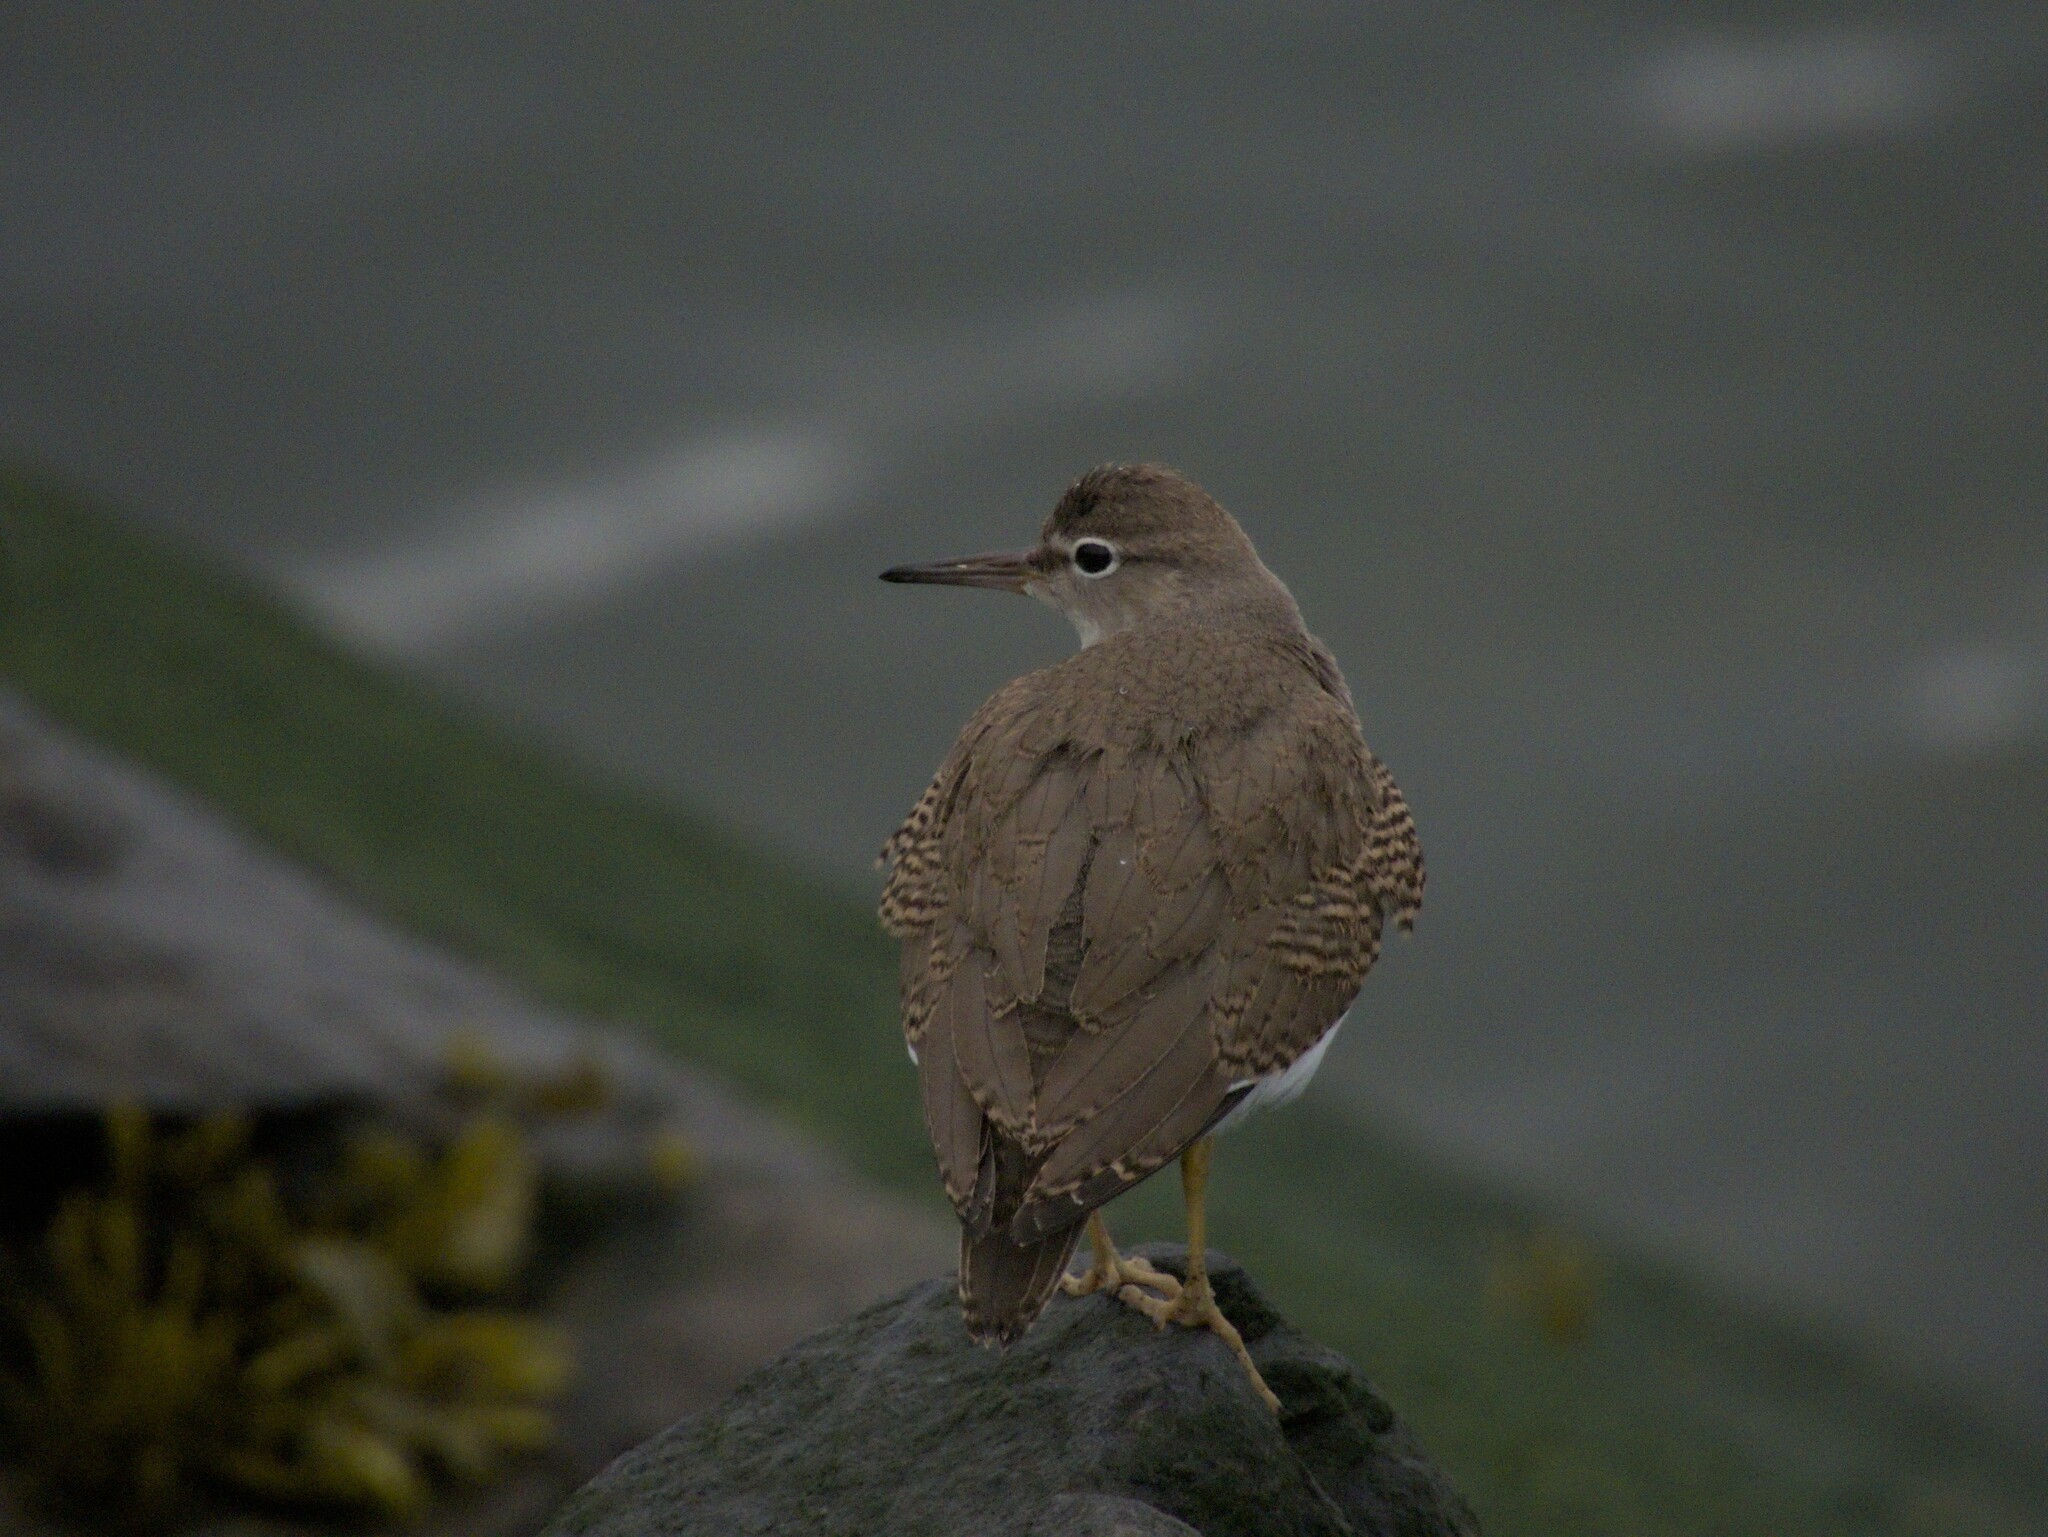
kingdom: Animalia
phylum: Chordata
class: Aves
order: Charadriiformes
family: Scolopacidae
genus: Actitis
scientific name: Actitis macularius
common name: Spotted sandpiper
